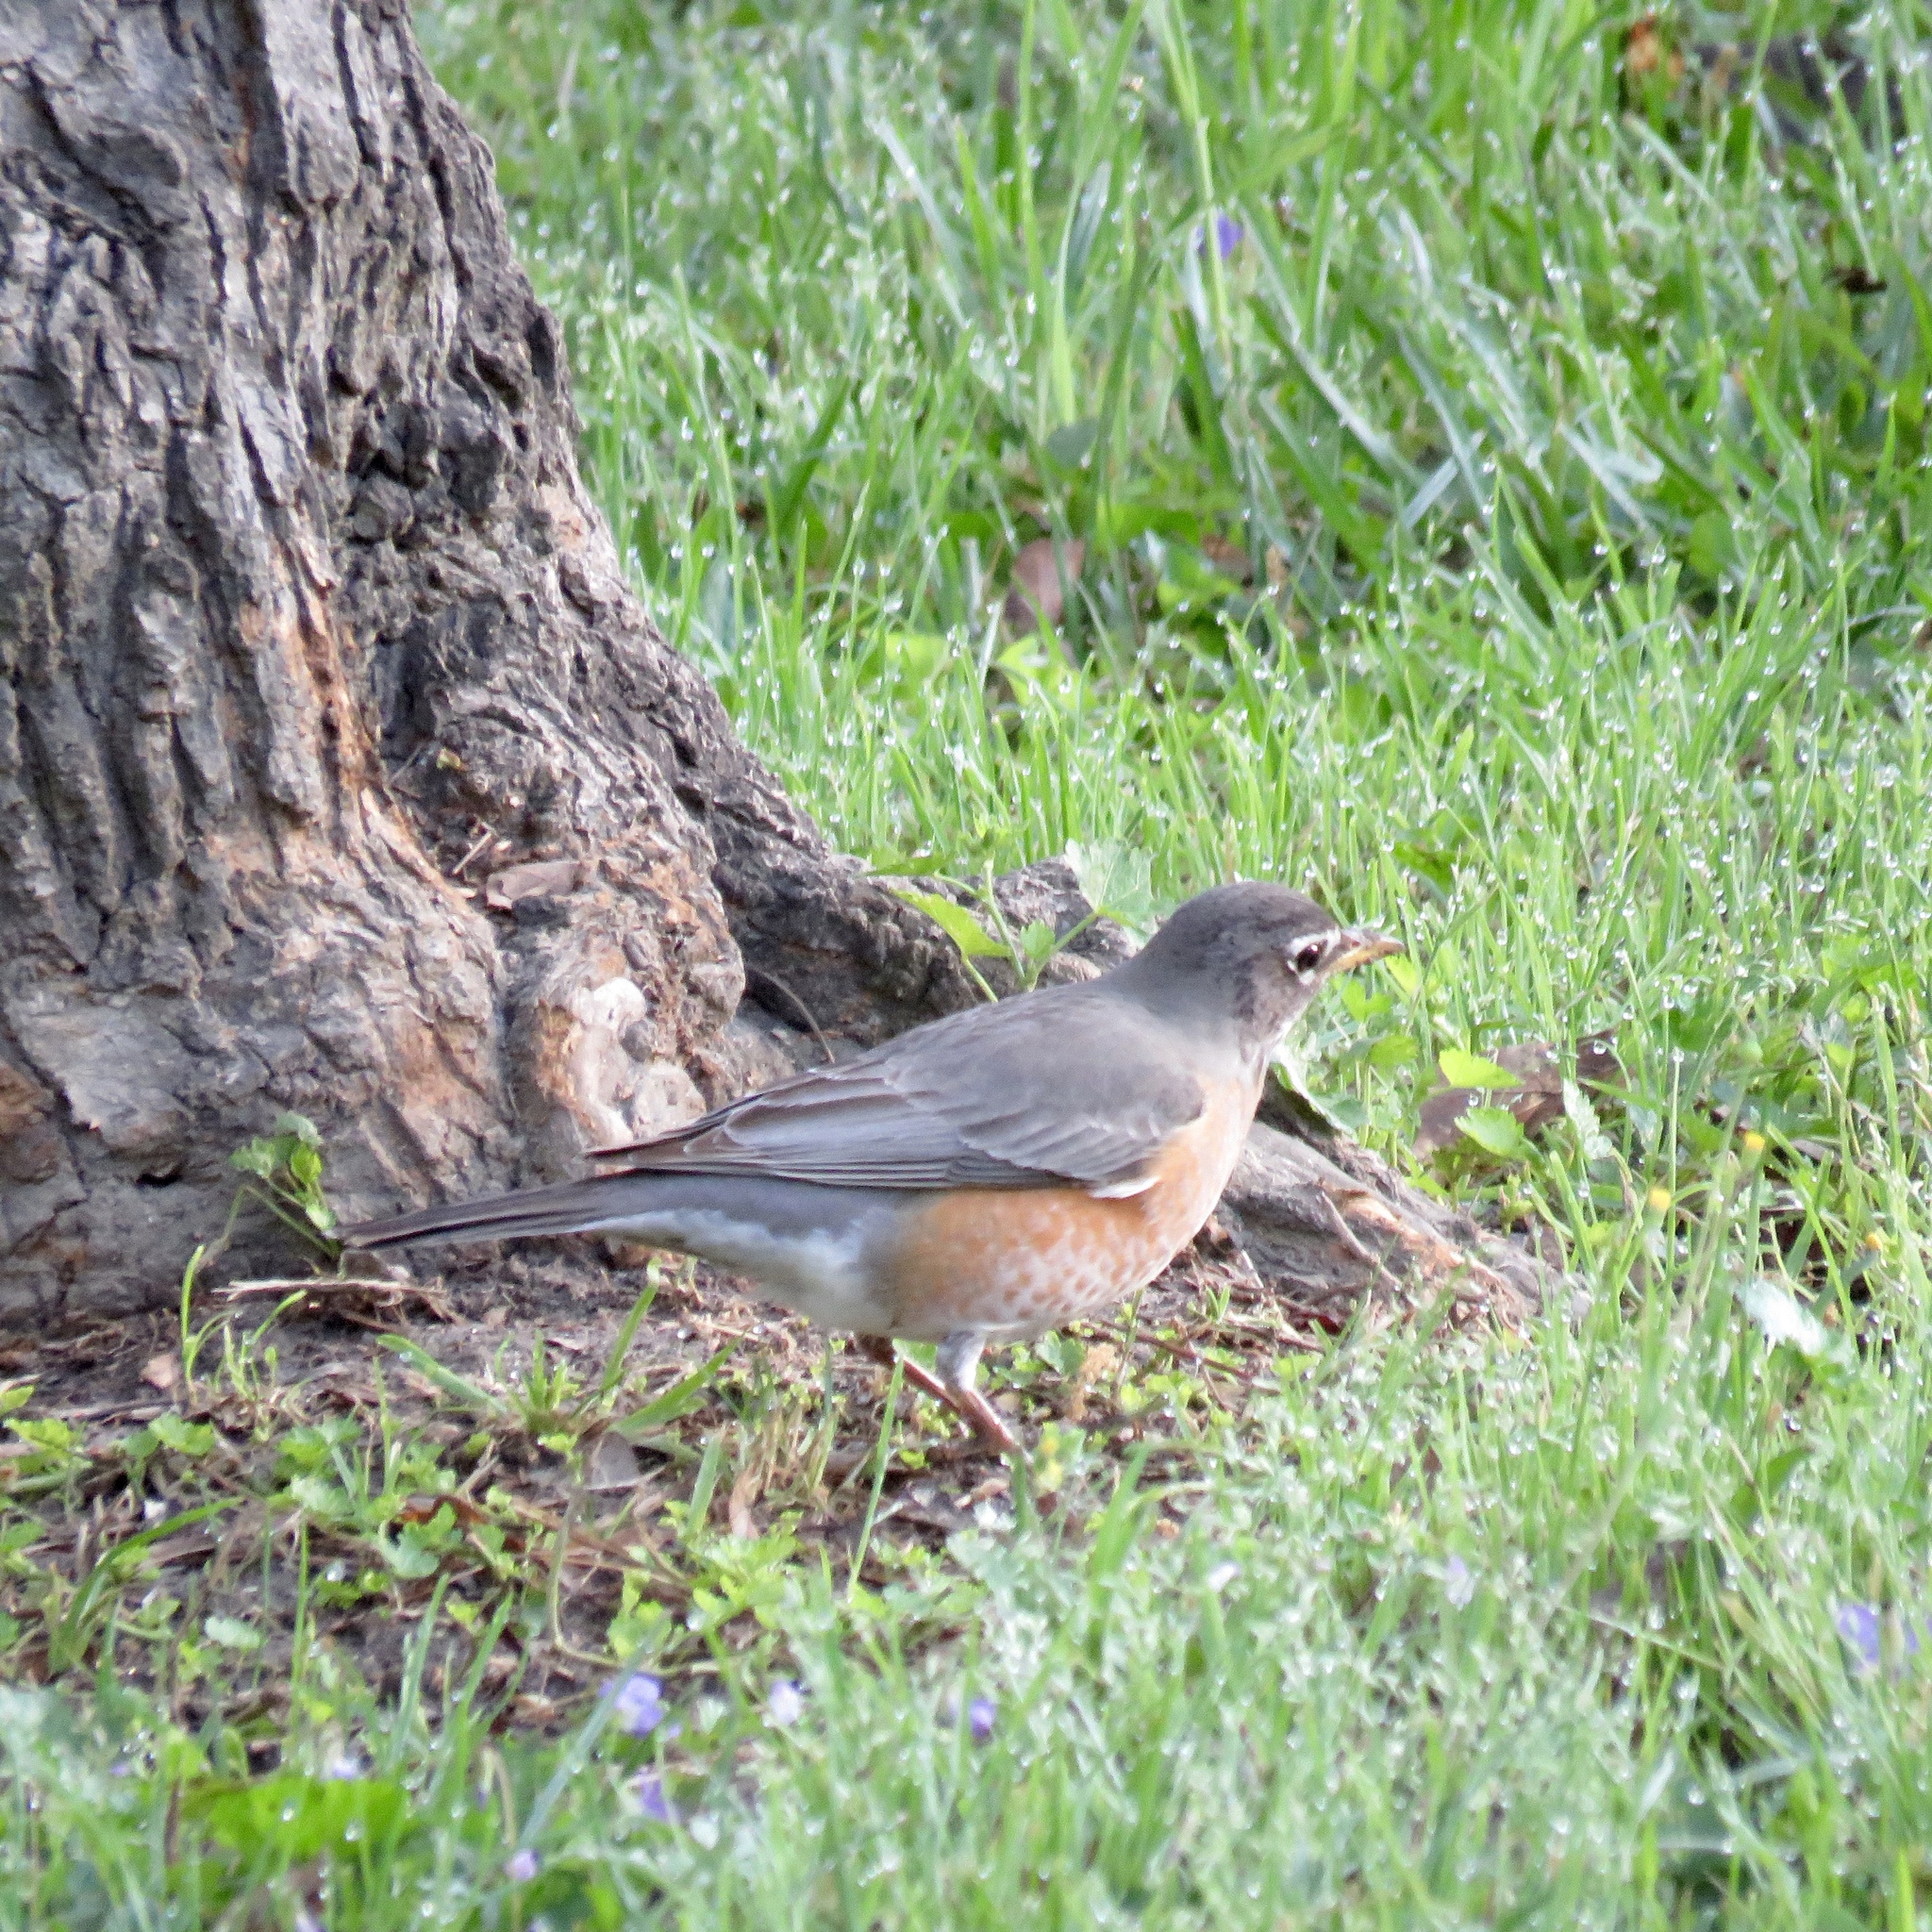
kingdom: Animalia
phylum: Chordata
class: Aves
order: Passeriformes
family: Turdidae
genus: Turdus
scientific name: Turdus migratorius
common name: American robin
